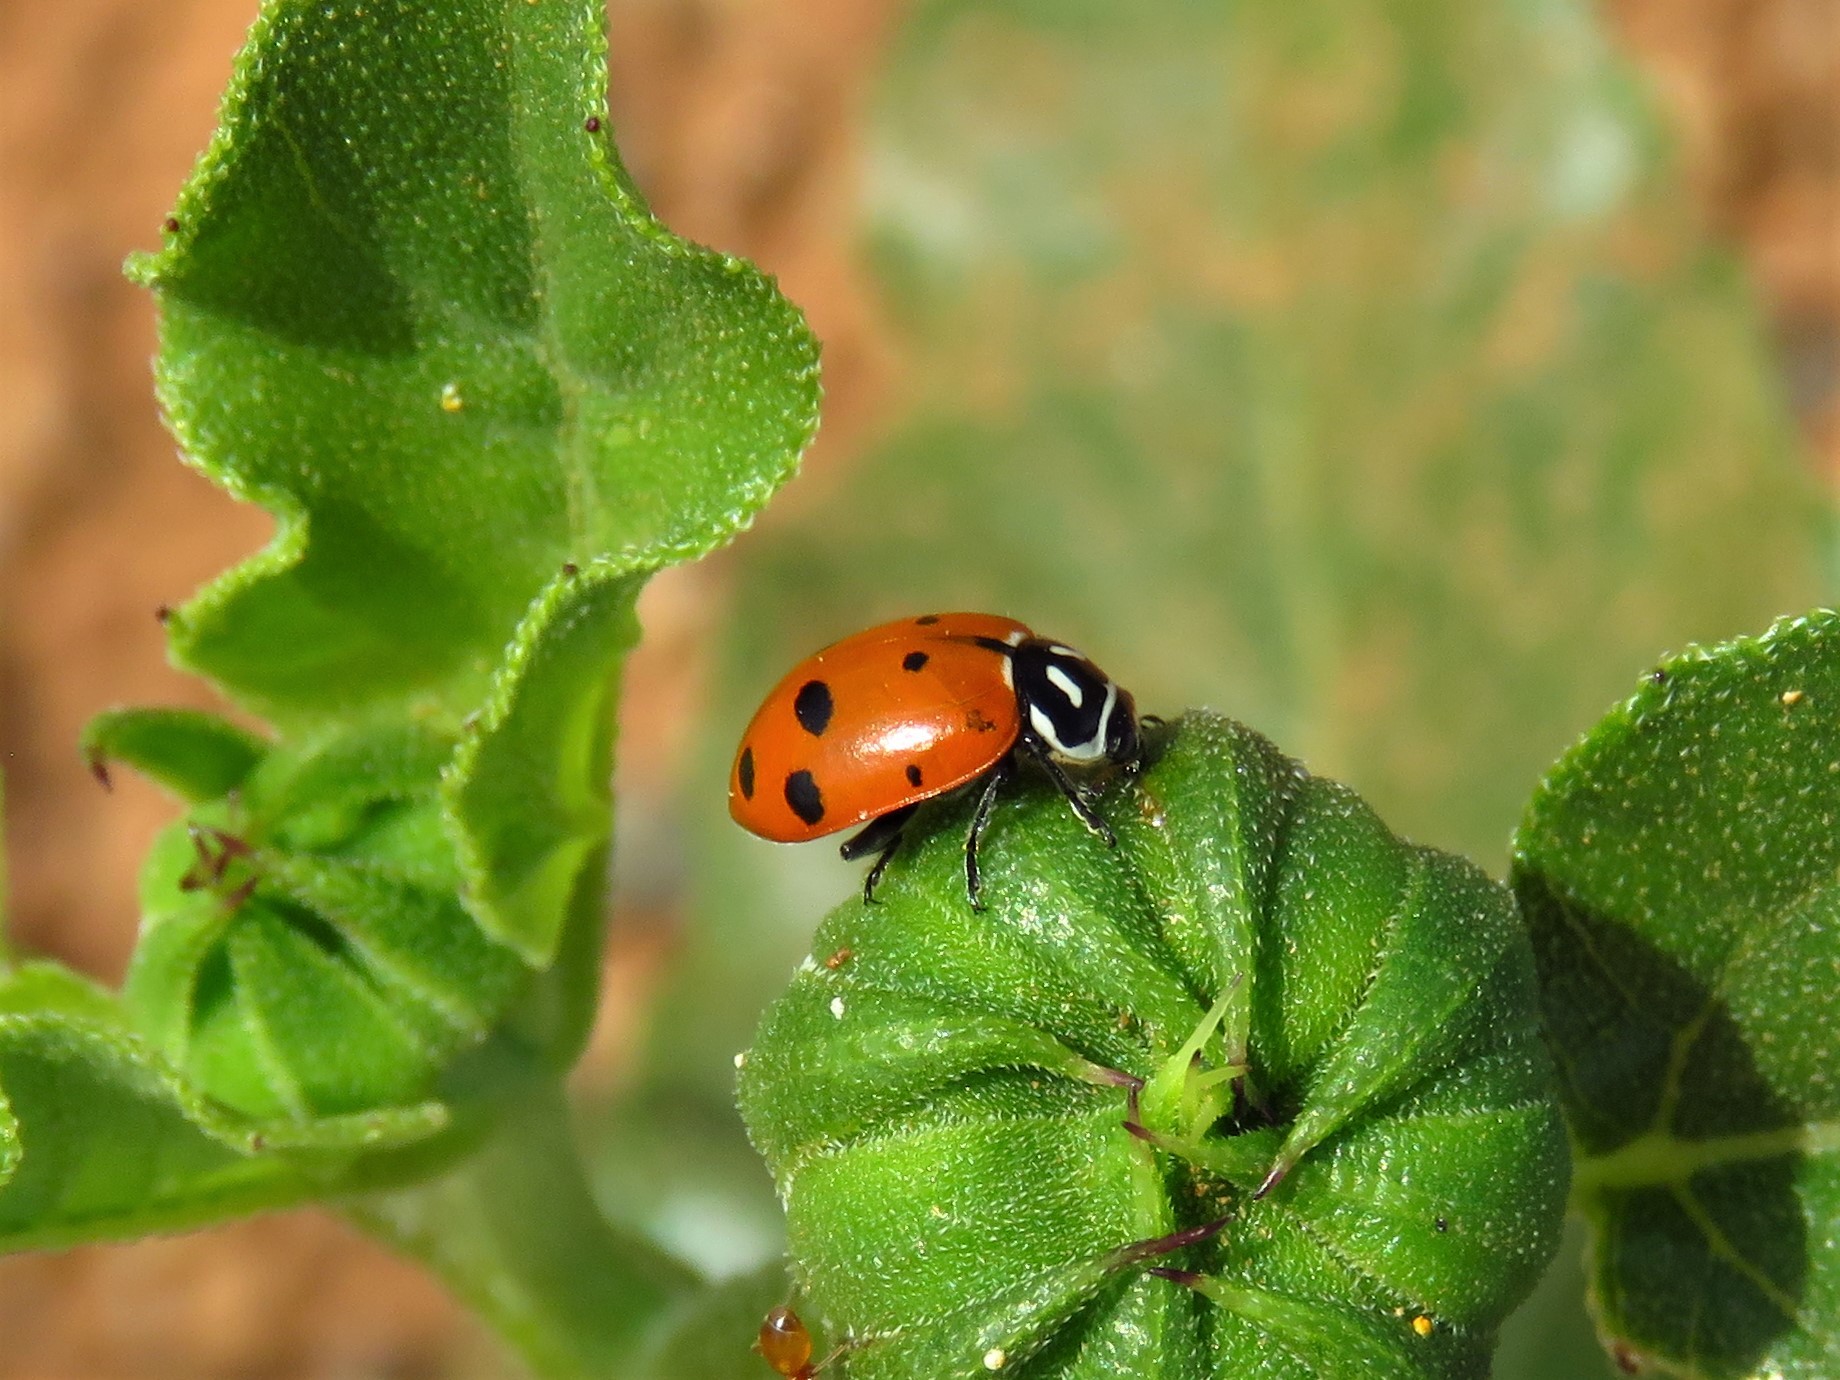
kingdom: Animalia
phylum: Arthropoda
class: Insecta
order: Coleoptera
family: Coccinellidae
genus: Hippodamia
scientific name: Hippodamia convergens
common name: Convergent lady beetle
